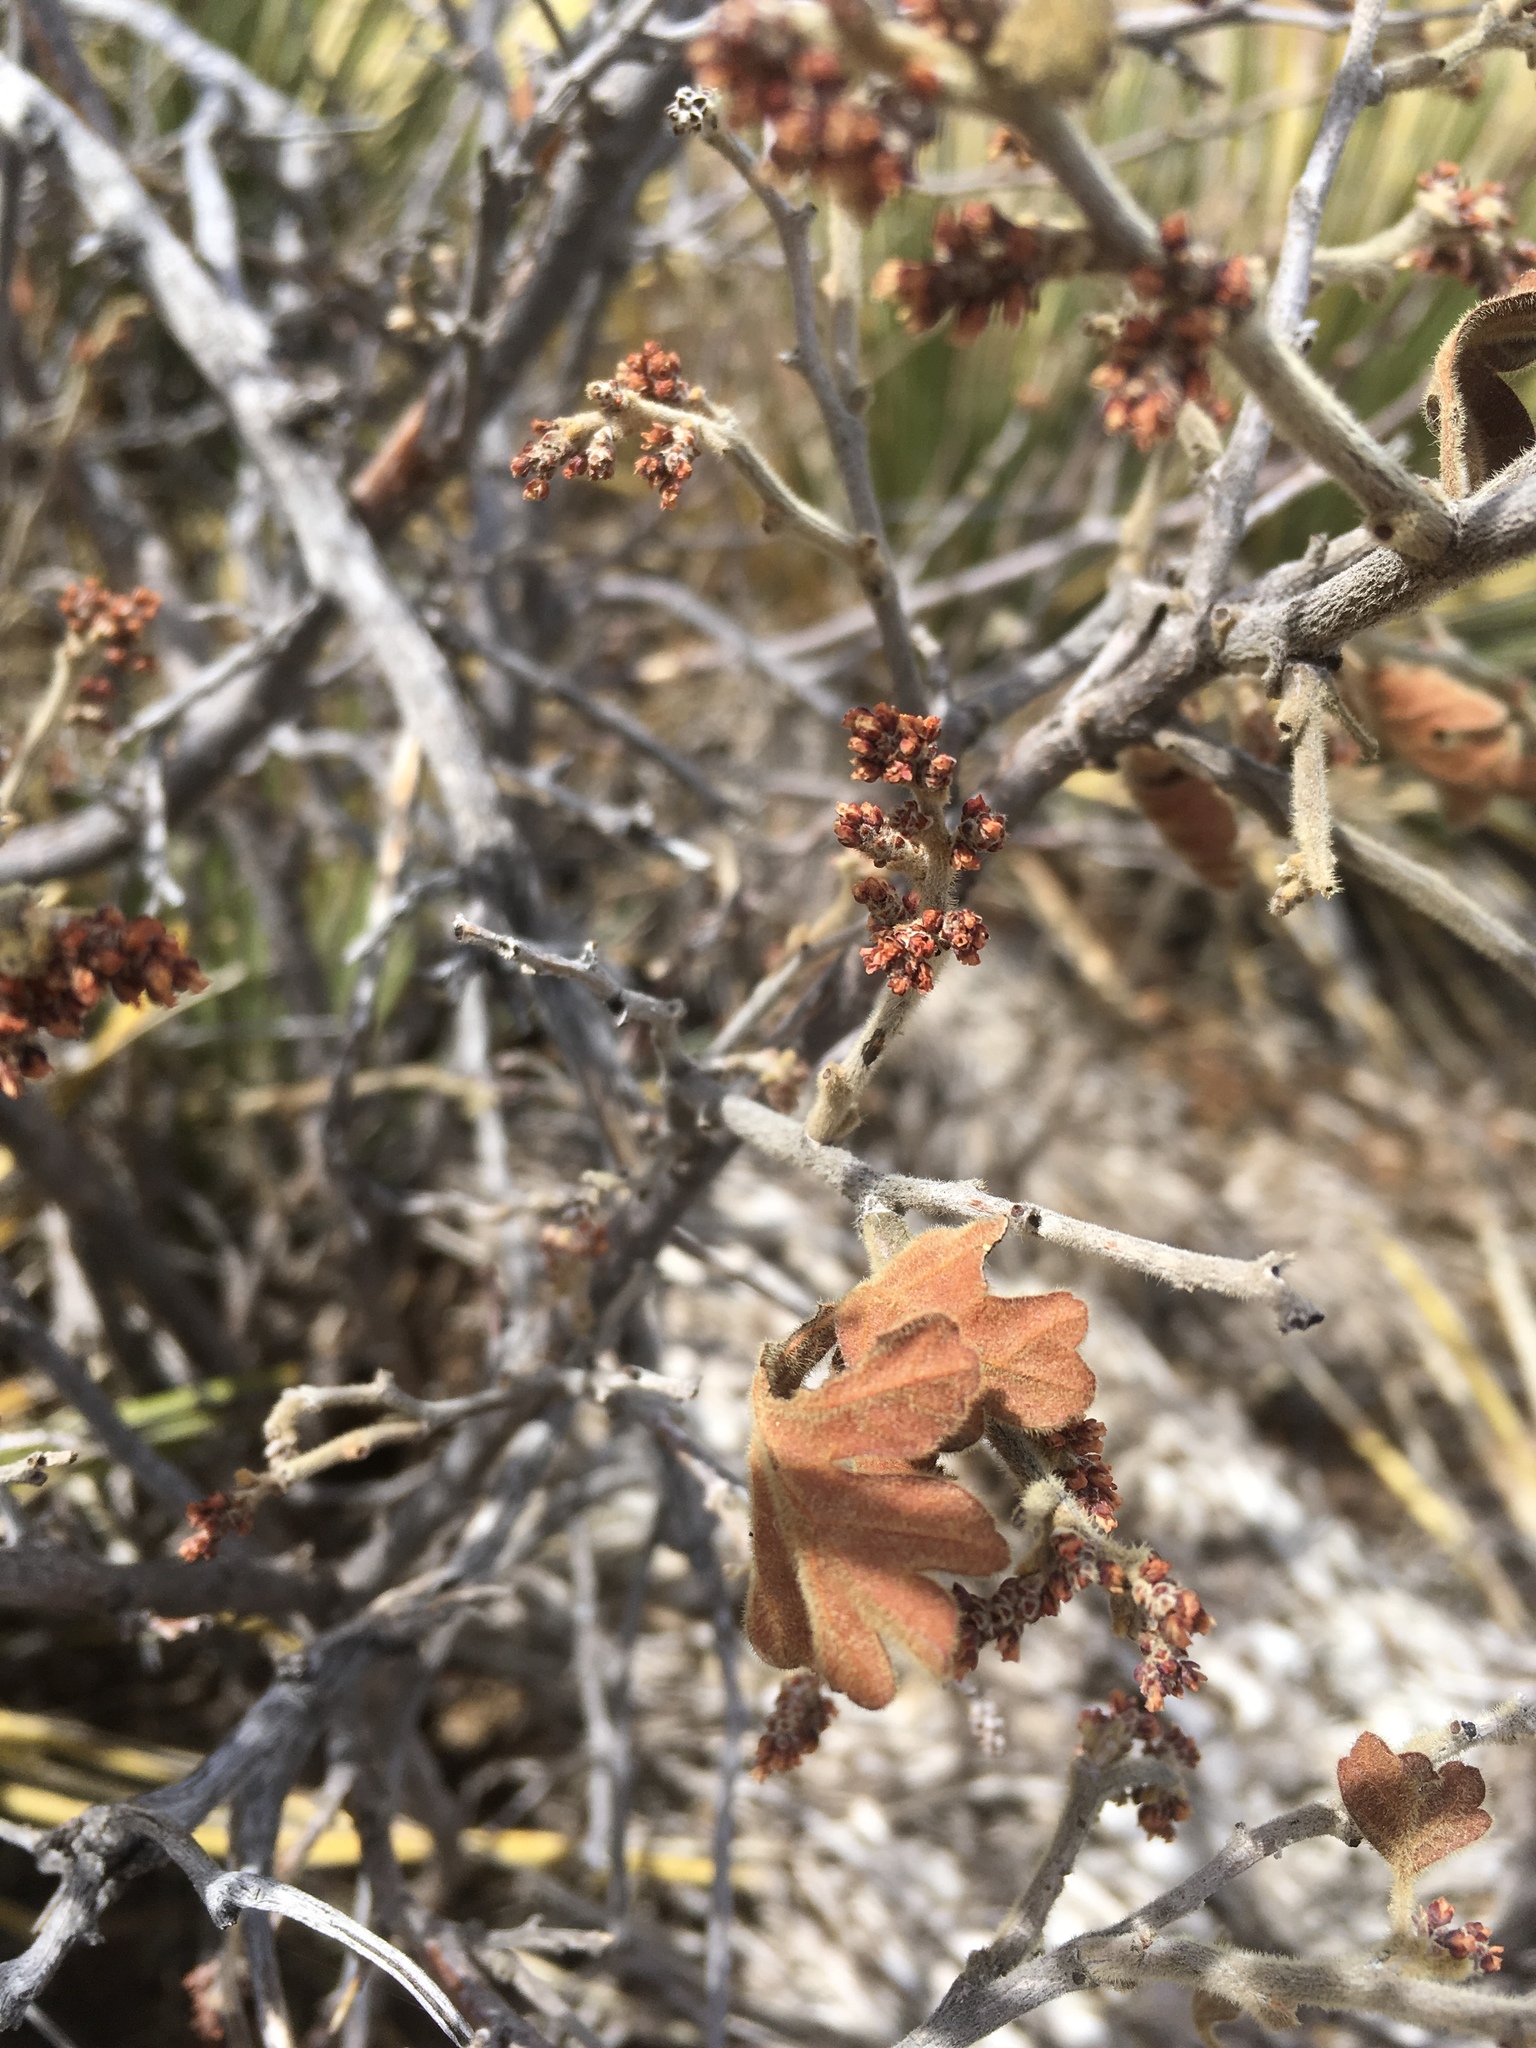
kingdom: Plantae
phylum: Tracheophyta
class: Magnoliopsida
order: Sapindales
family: Anacardiaceae
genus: Rhus
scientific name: Rhus aromatica
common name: Aromatic sumac
